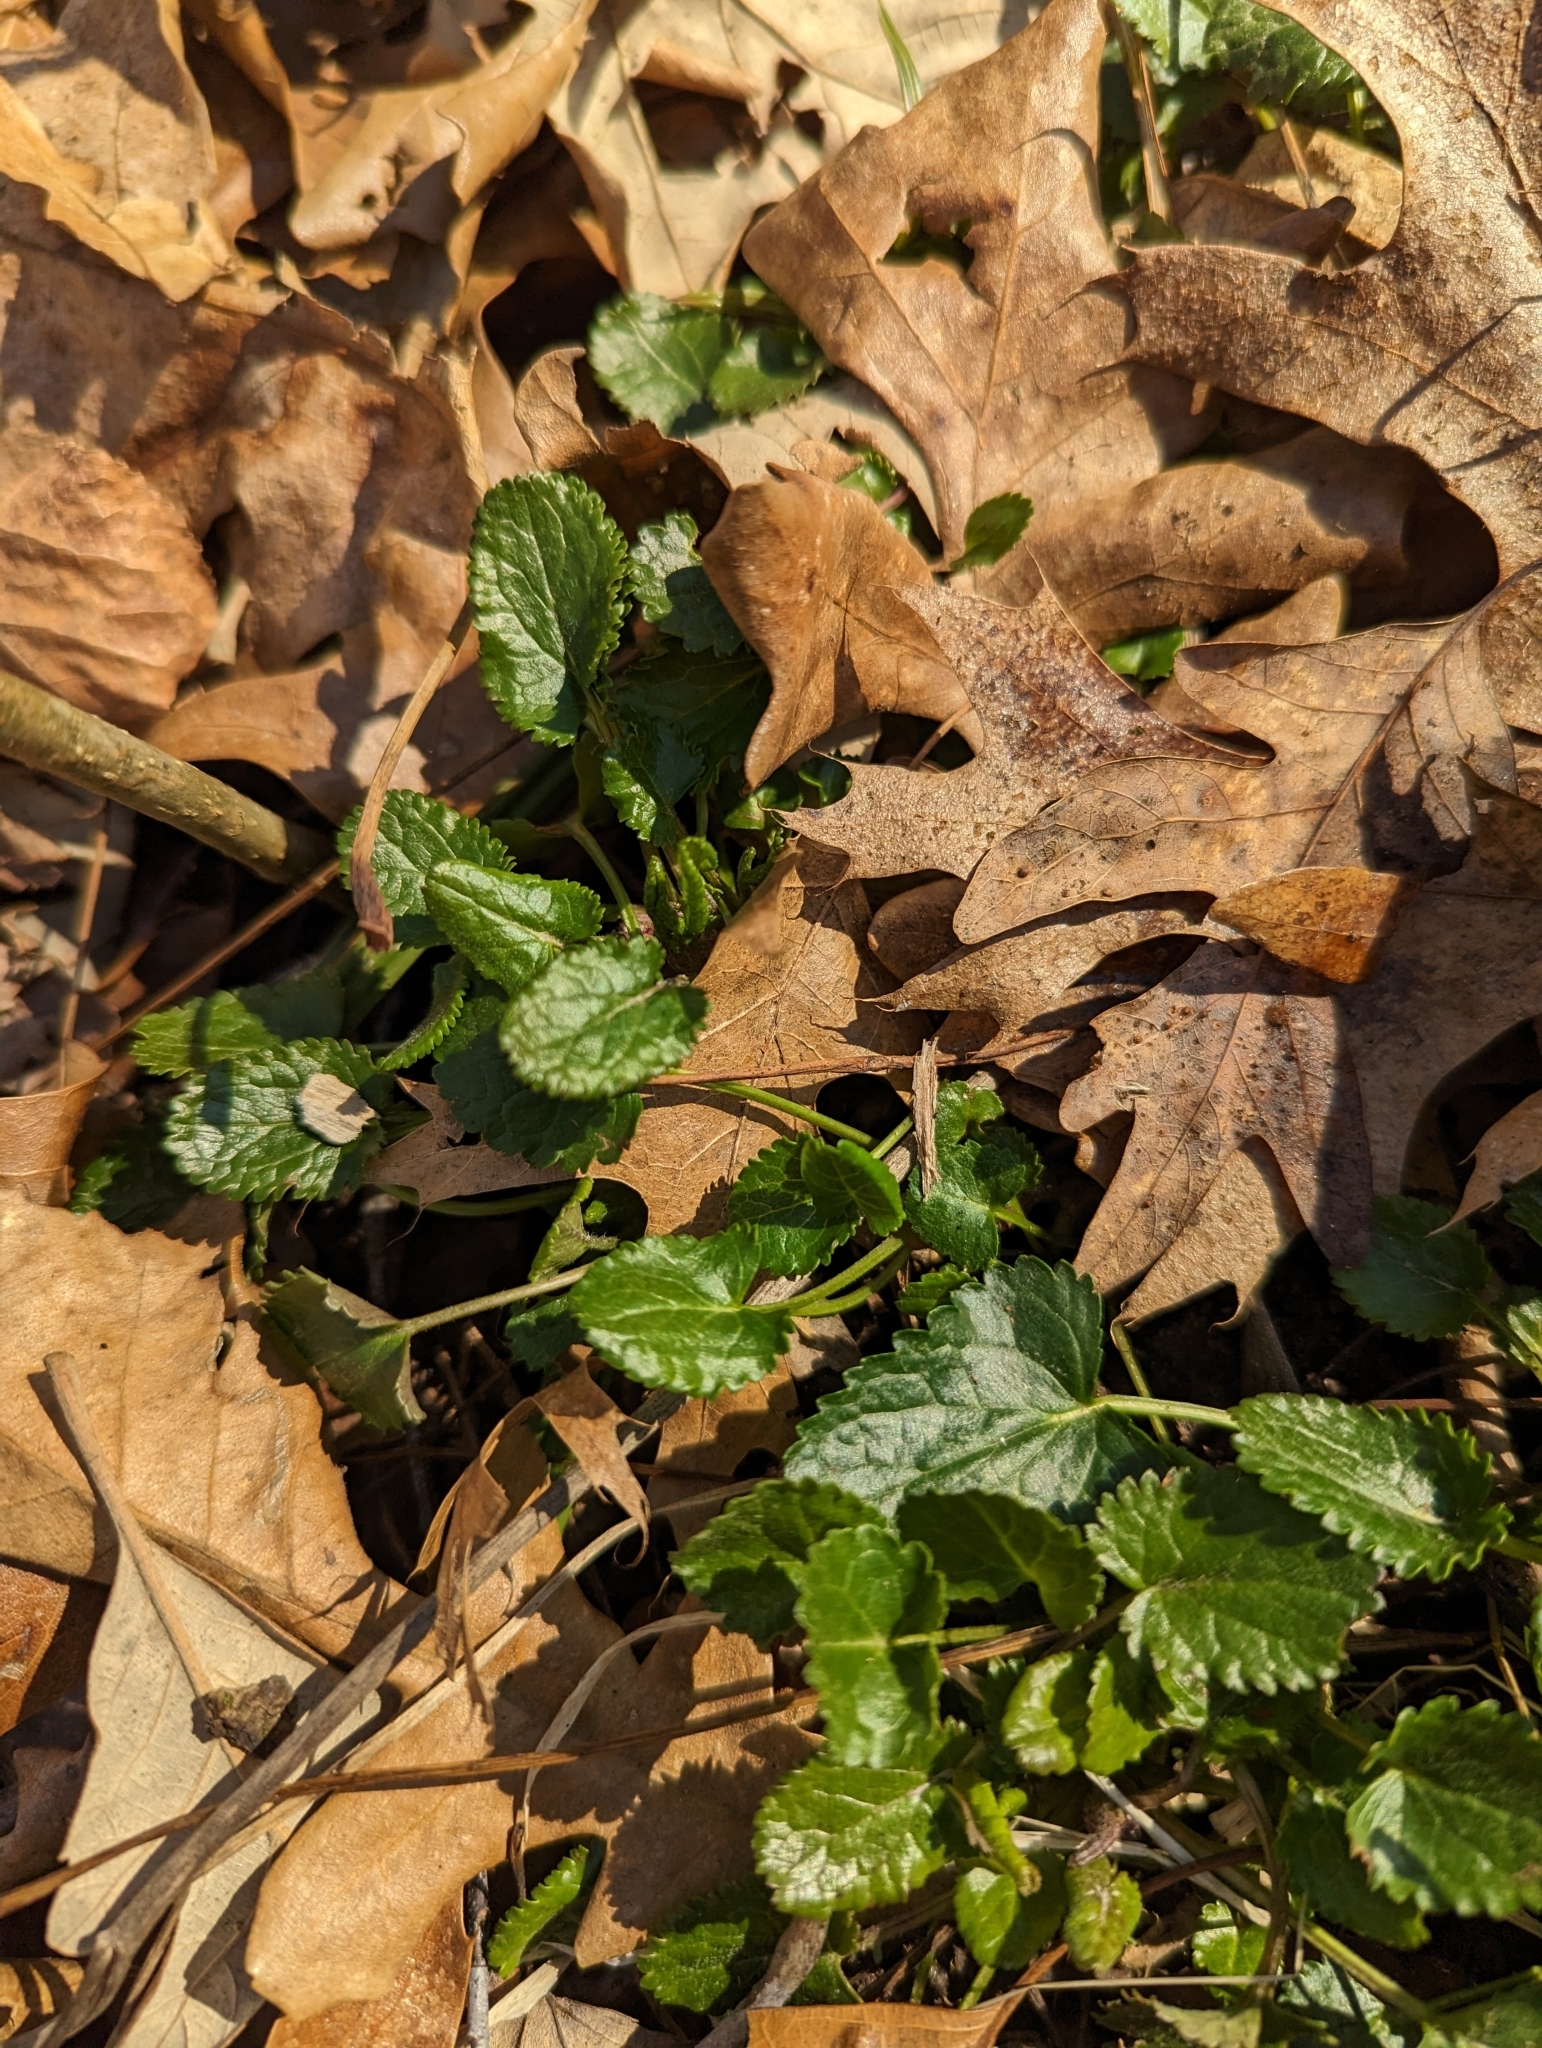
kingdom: Plantae
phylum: Tracheophyta
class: Magnoliopsida
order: Asterales
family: Asteraceae
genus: Packera
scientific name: Packera aurea
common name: Golden groundsel
